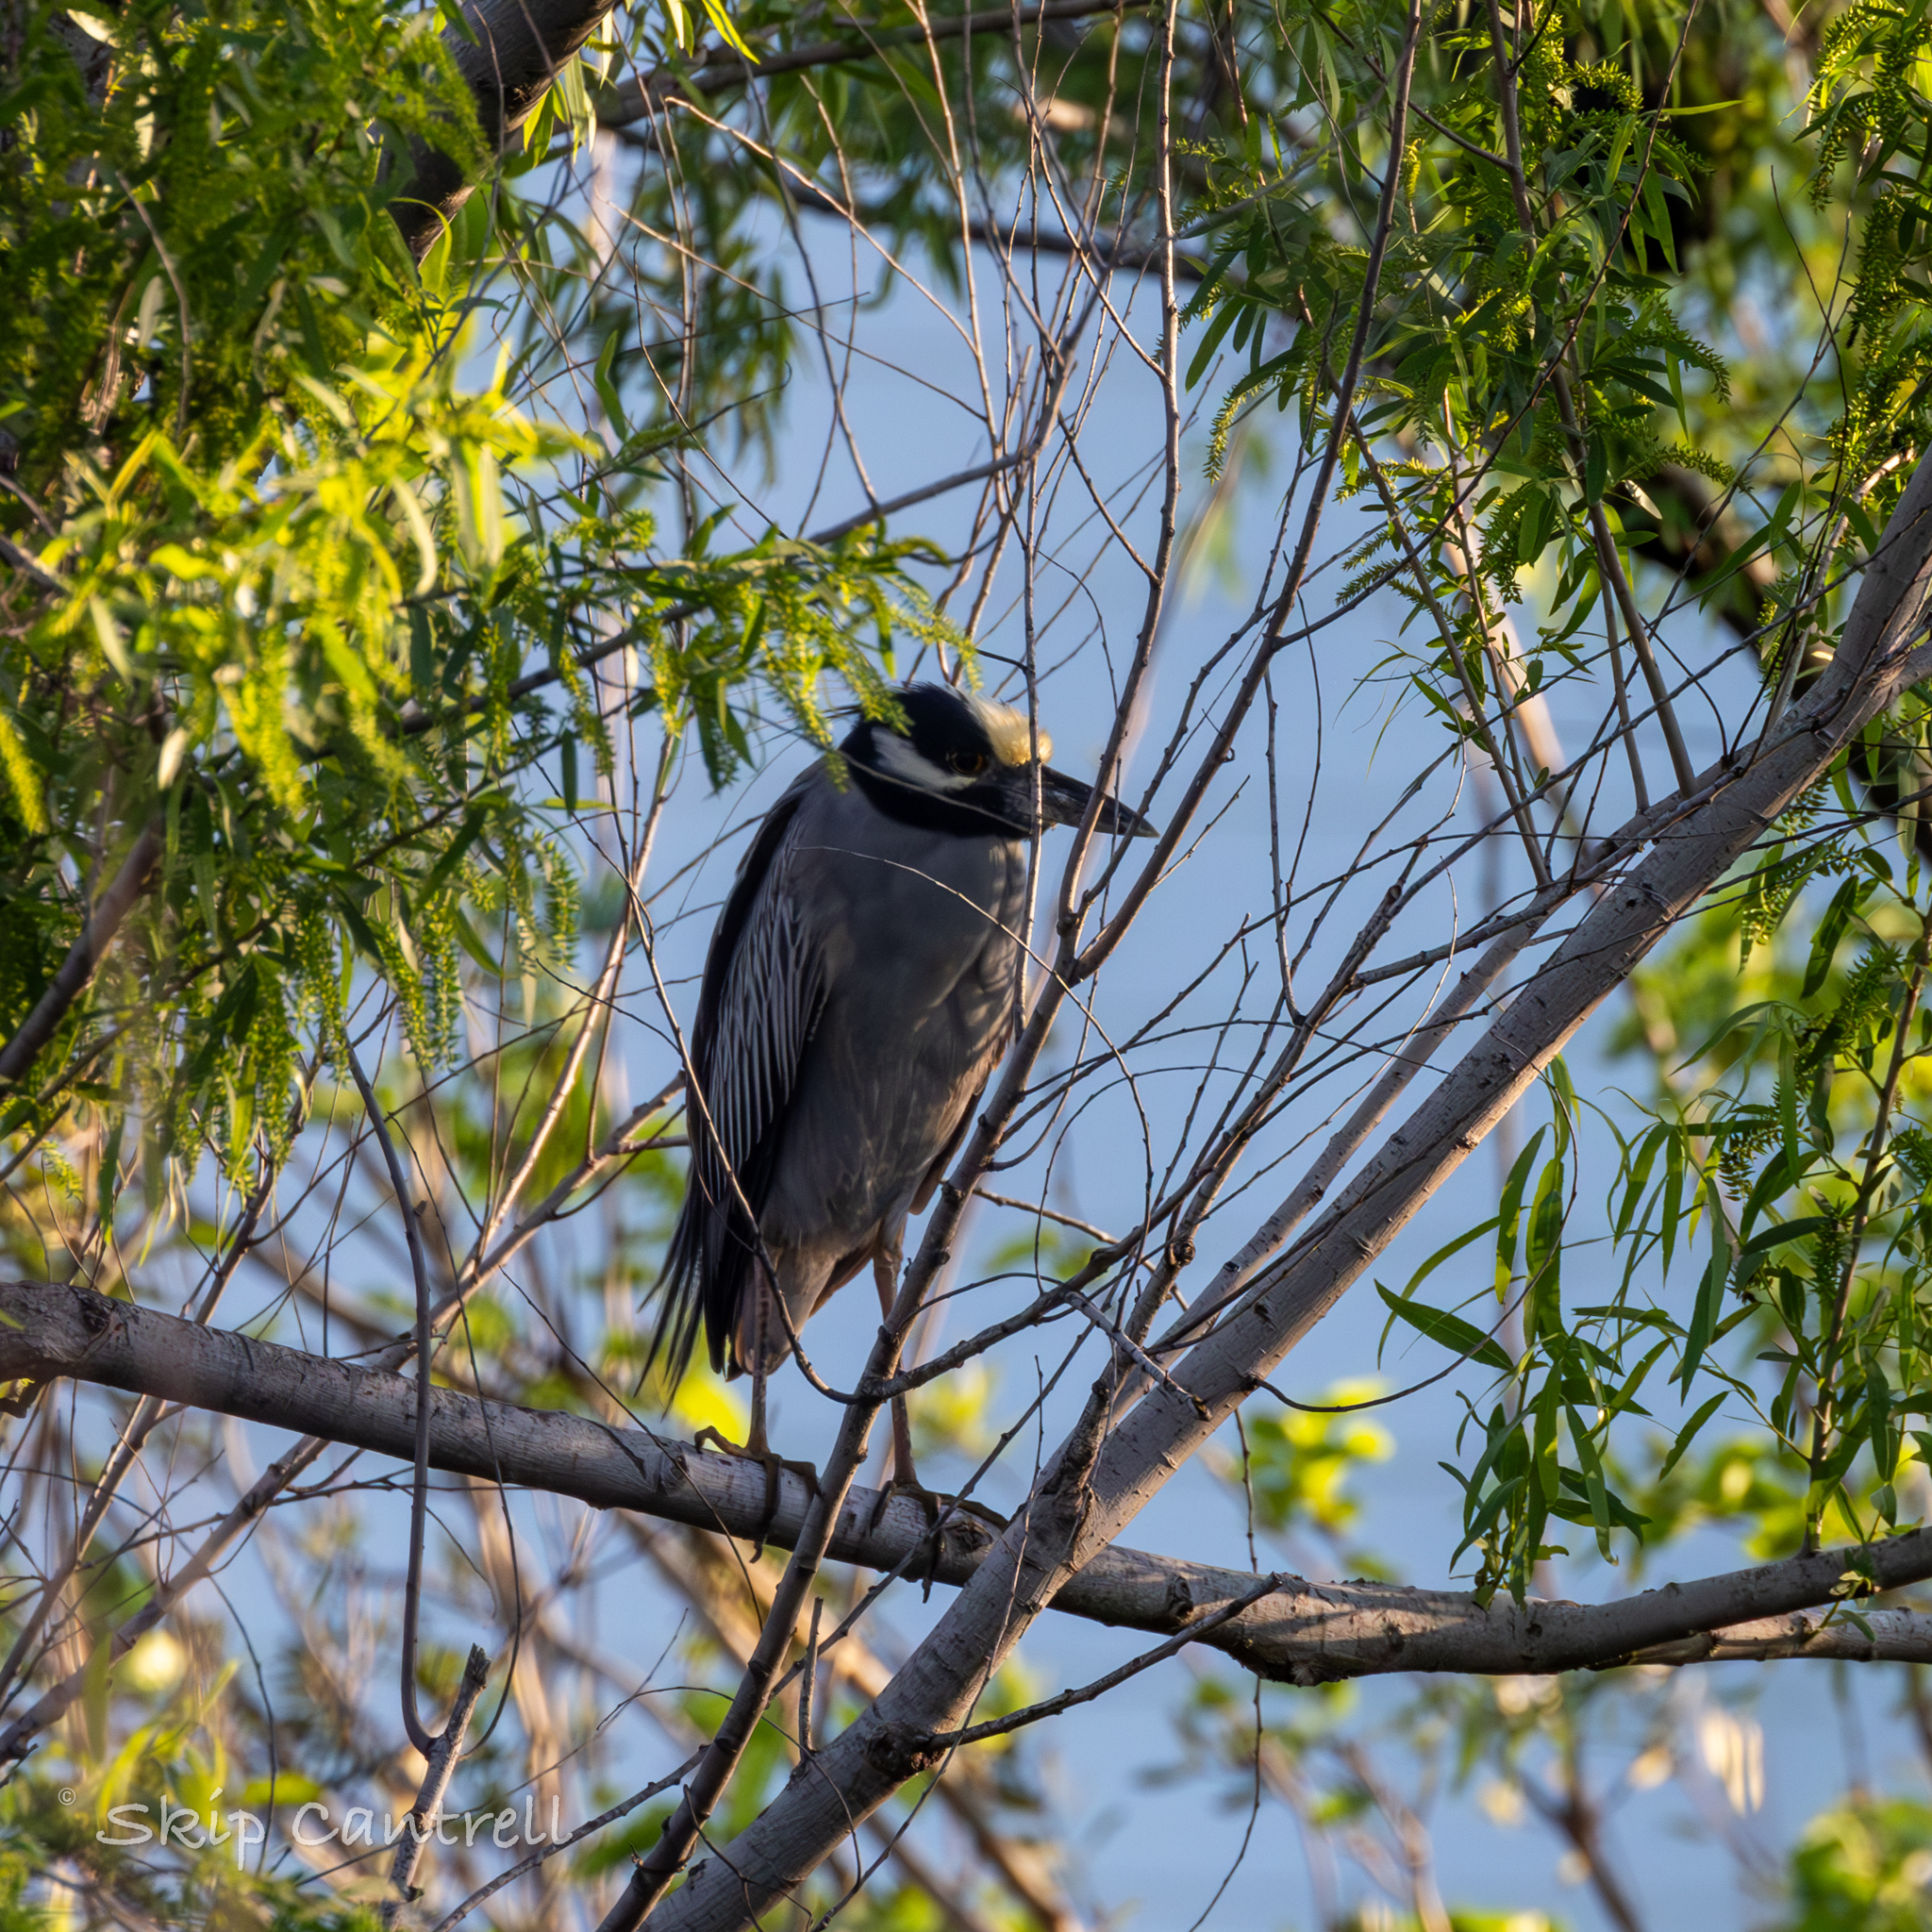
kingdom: Animalia
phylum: Chordata
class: Aves
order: Pelecaniformes
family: Ardeidae
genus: Nyctanassa
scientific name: Nyctanassa violacea
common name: Yellow-crowned night heron
